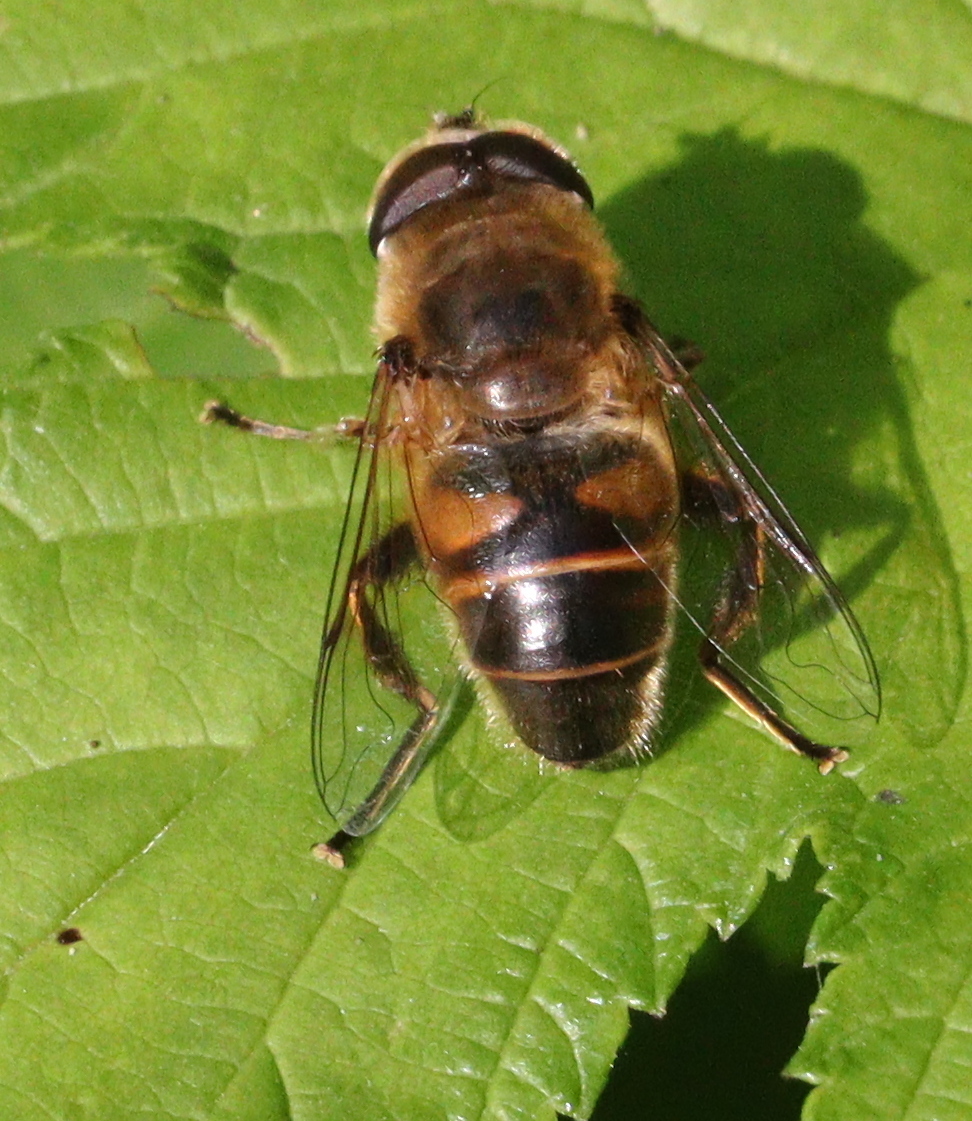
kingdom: Animalia
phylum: Arthropoda
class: Insecta
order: Diptera
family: Syrphidae
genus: Eristalis
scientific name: Eristalis tenax
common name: Drone fly
